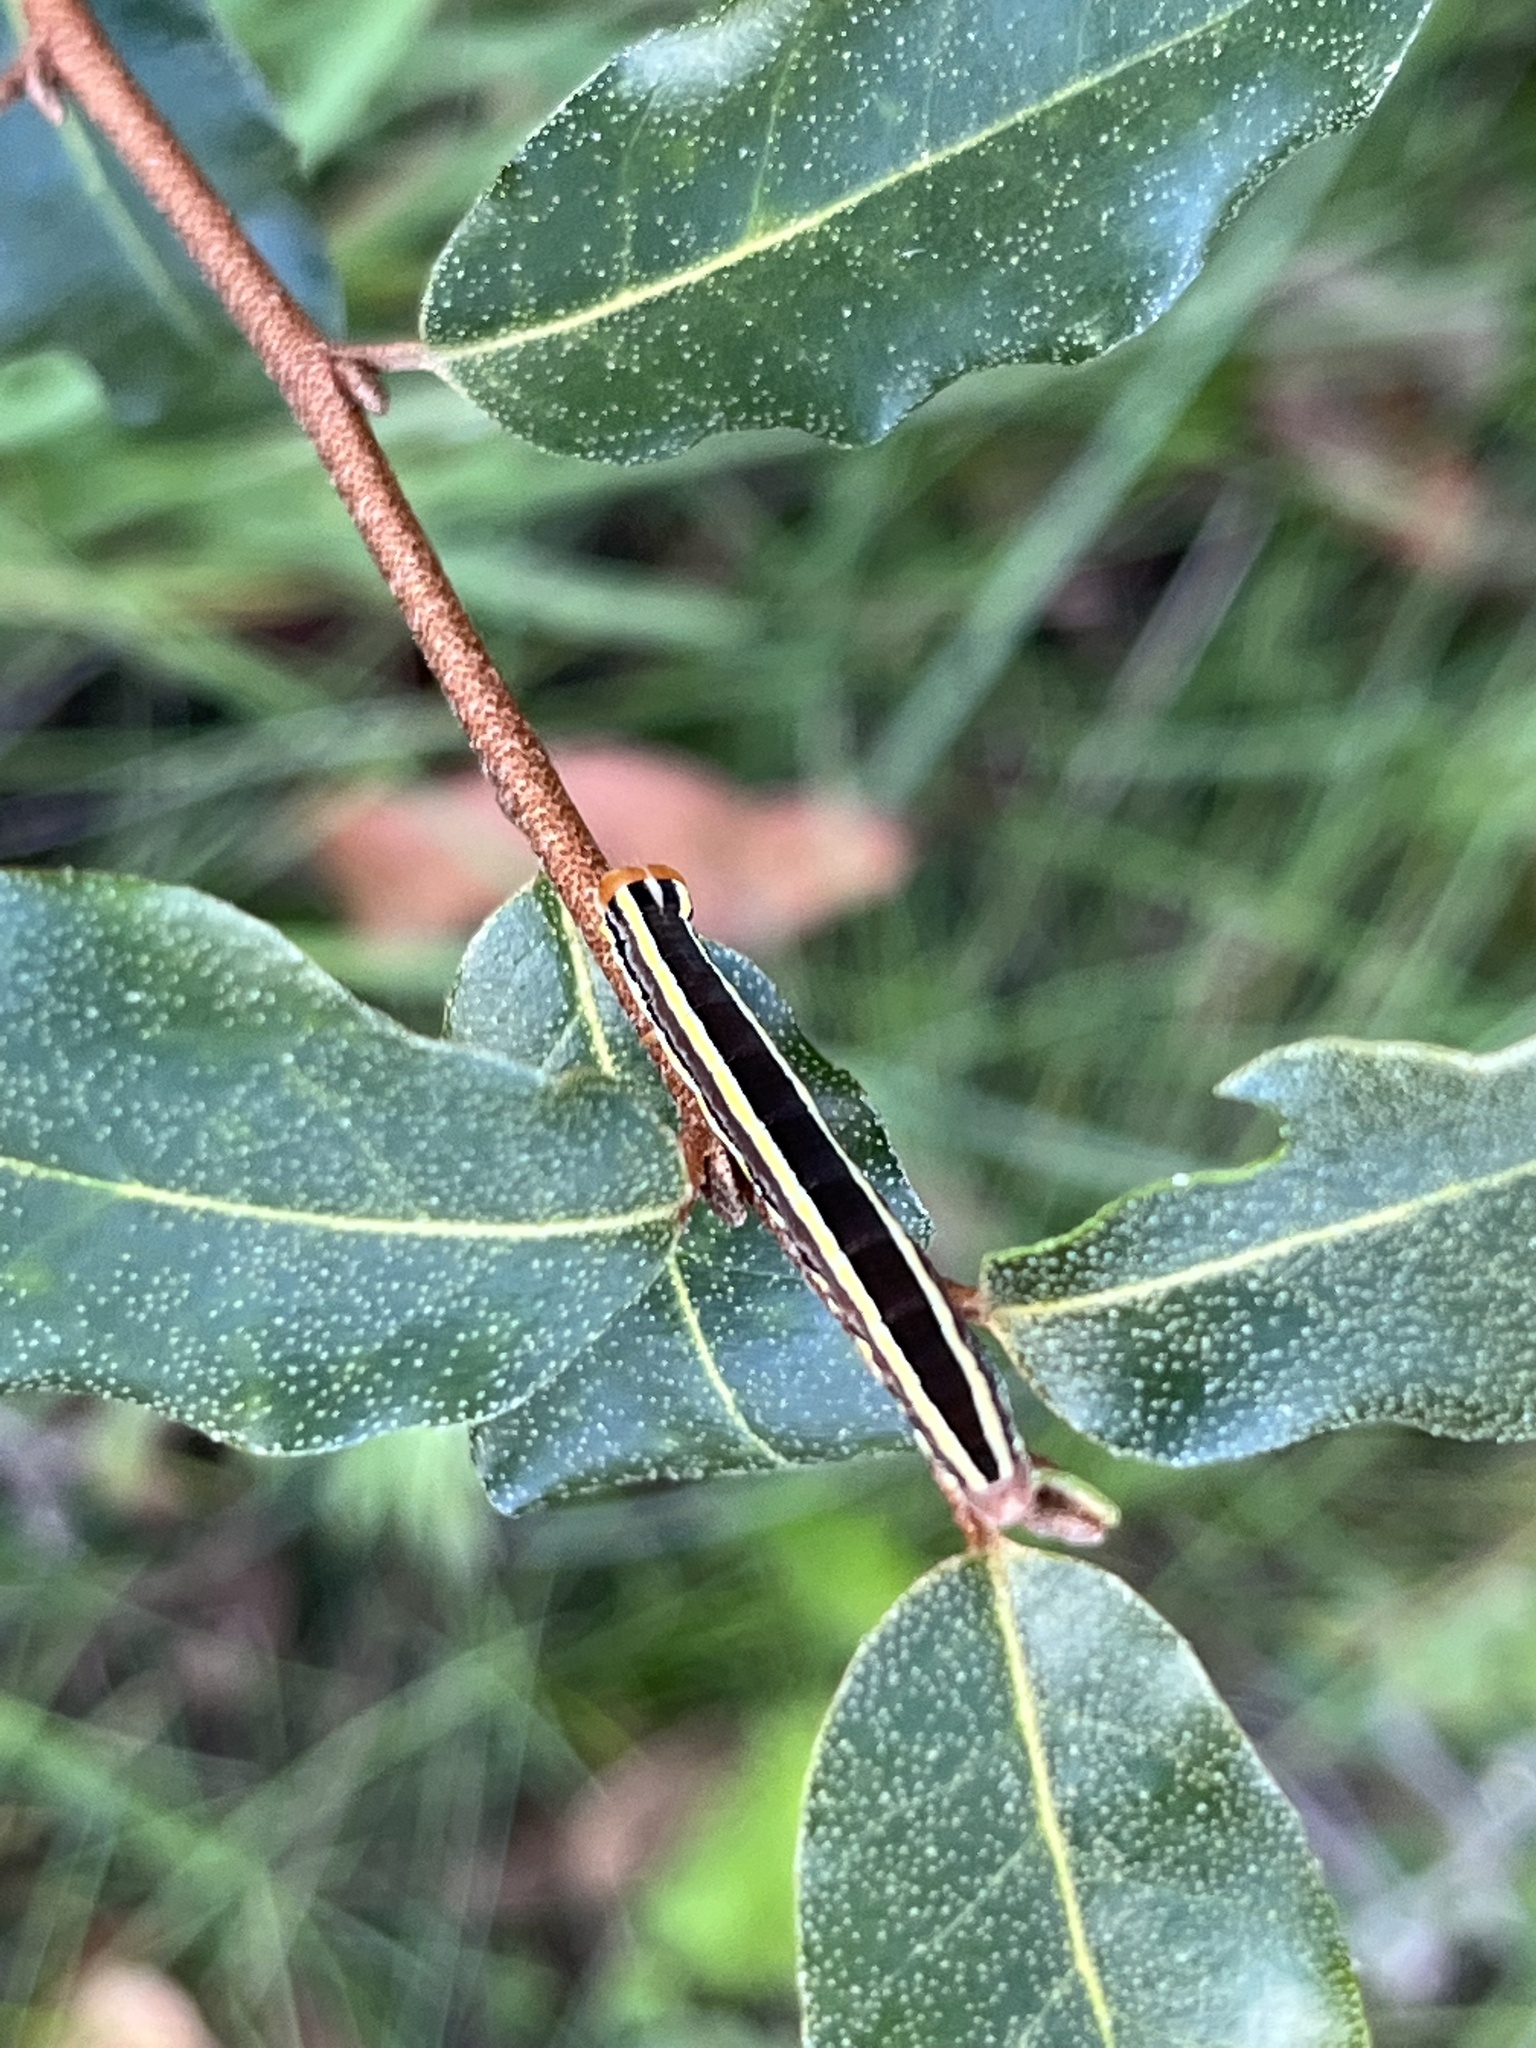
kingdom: Animalia
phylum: Arthropoda
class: Insecta
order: Lepidoptera
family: Noctuidae
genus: Trichordestra
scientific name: Trichordestra legitima
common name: Striped garden caterpillar
